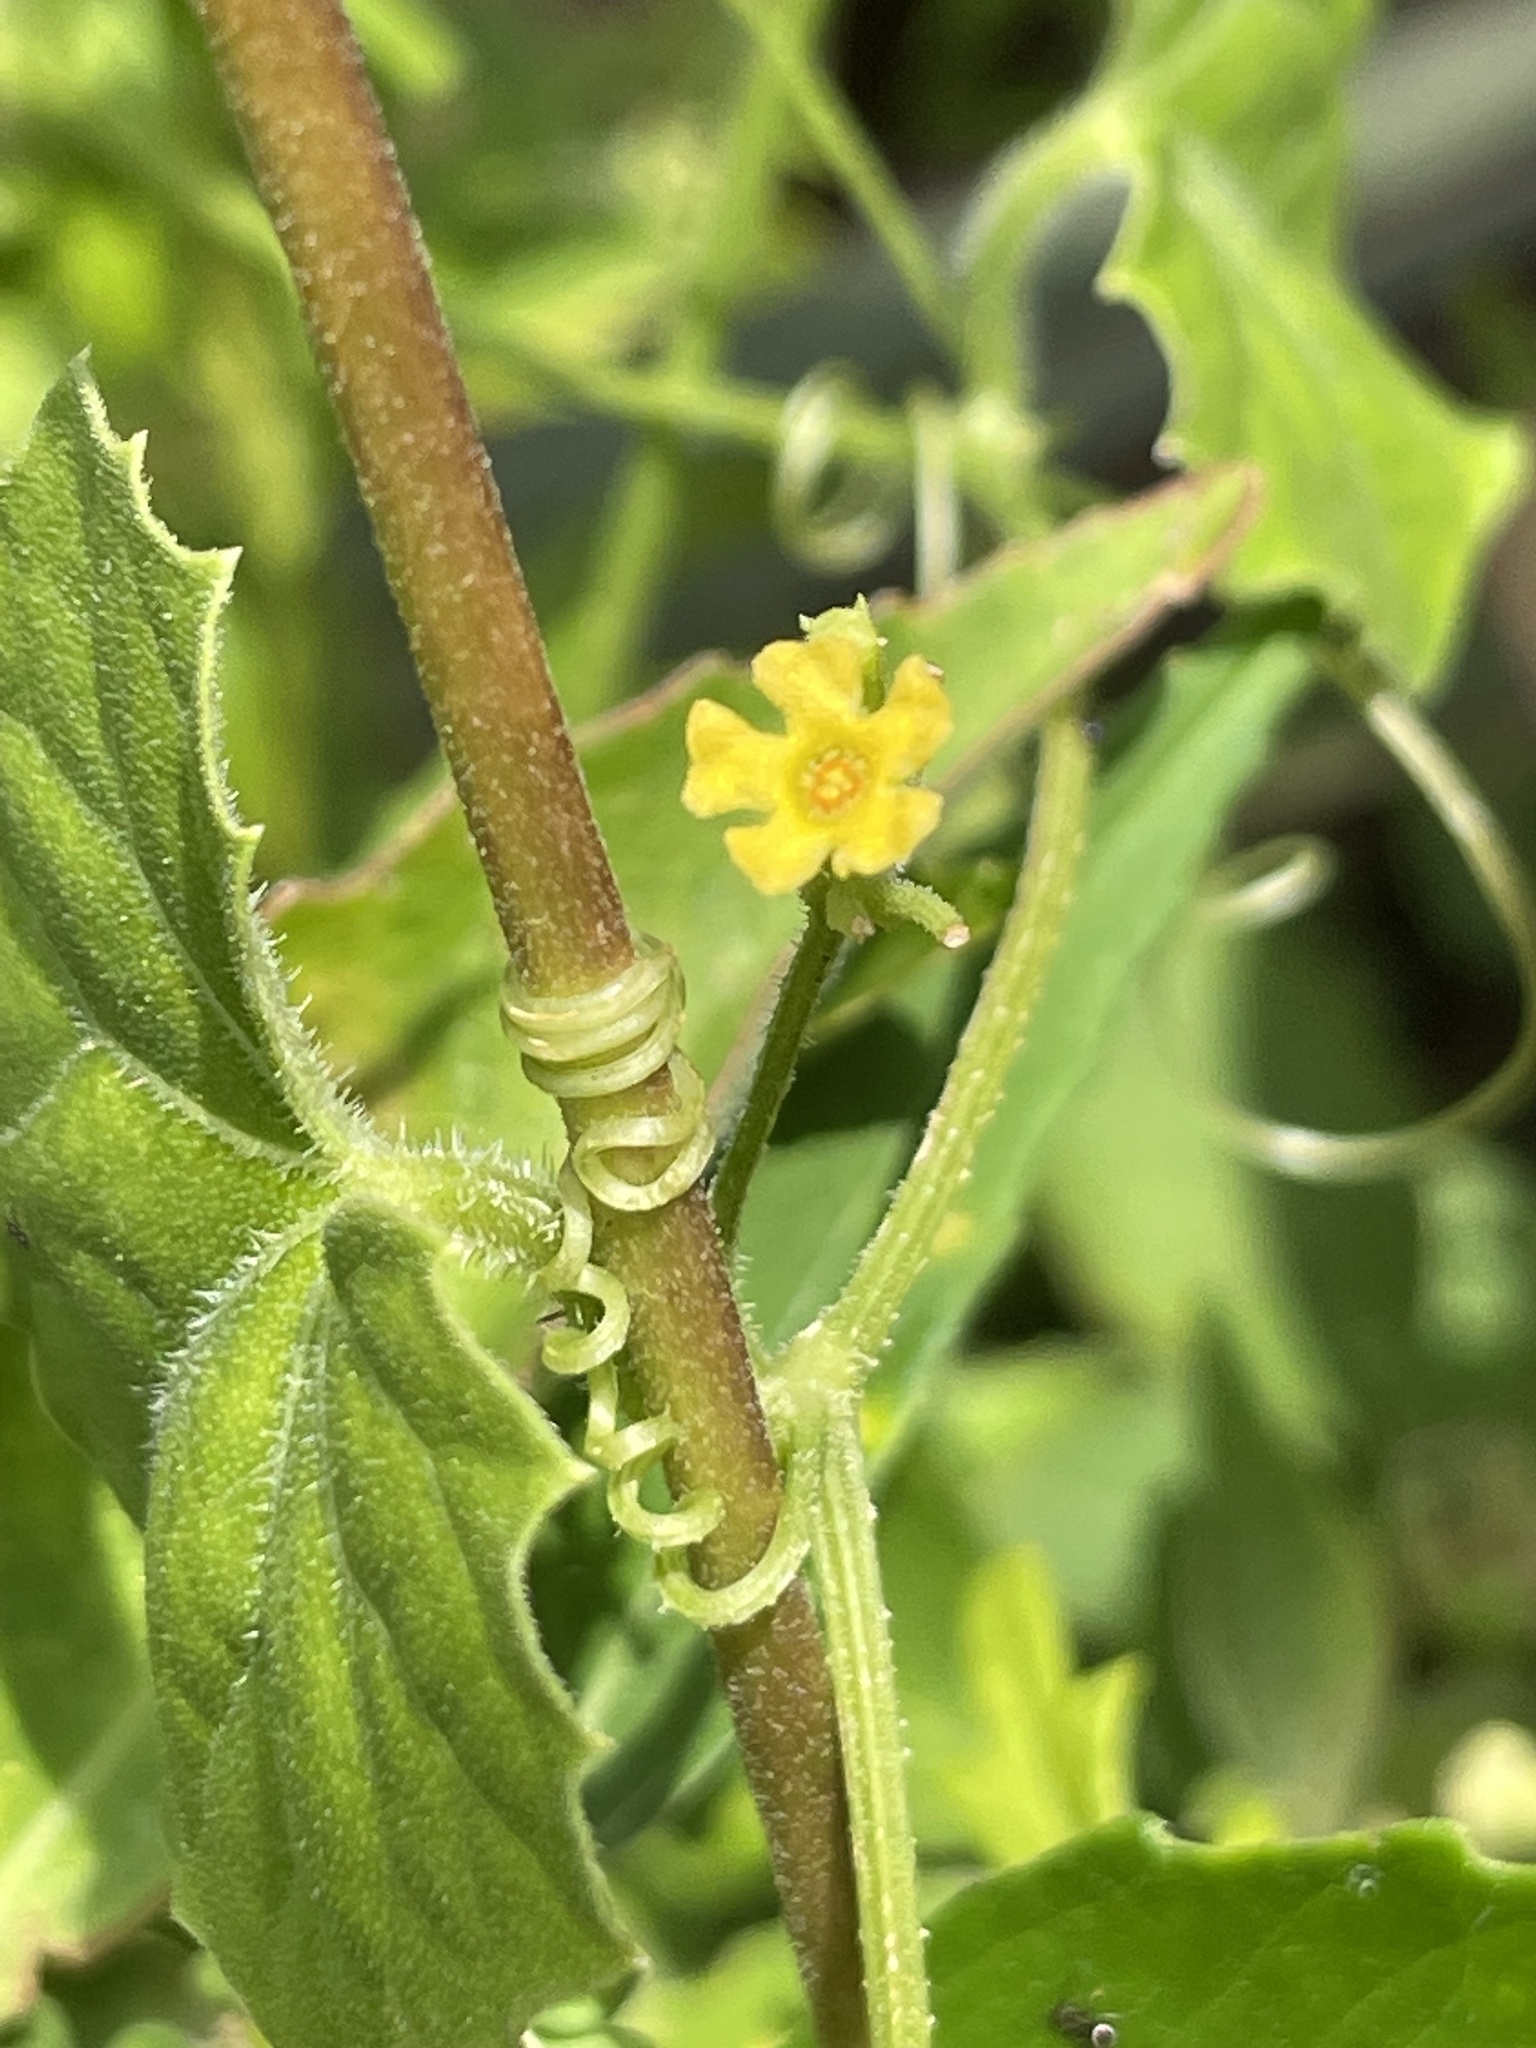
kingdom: Plantae
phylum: Tracheophyta
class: Magnoliopsida
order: Cucurbitales
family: Cucurbitaceae
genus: Melothria
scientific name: Melothria pendula
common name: Creeping-cucumber
